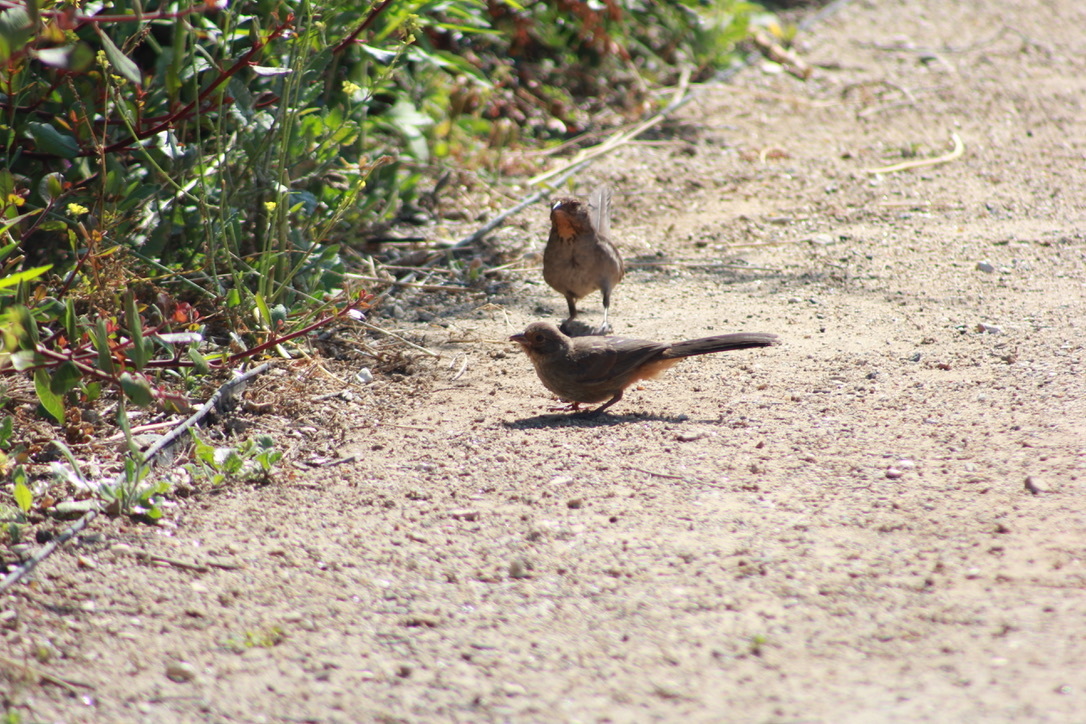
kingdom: Animalia
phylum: Chordata
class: Aves
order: Passeriformes
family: Passerellidae
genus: Melozone
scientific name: Melozone crissalis
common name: California towhee
